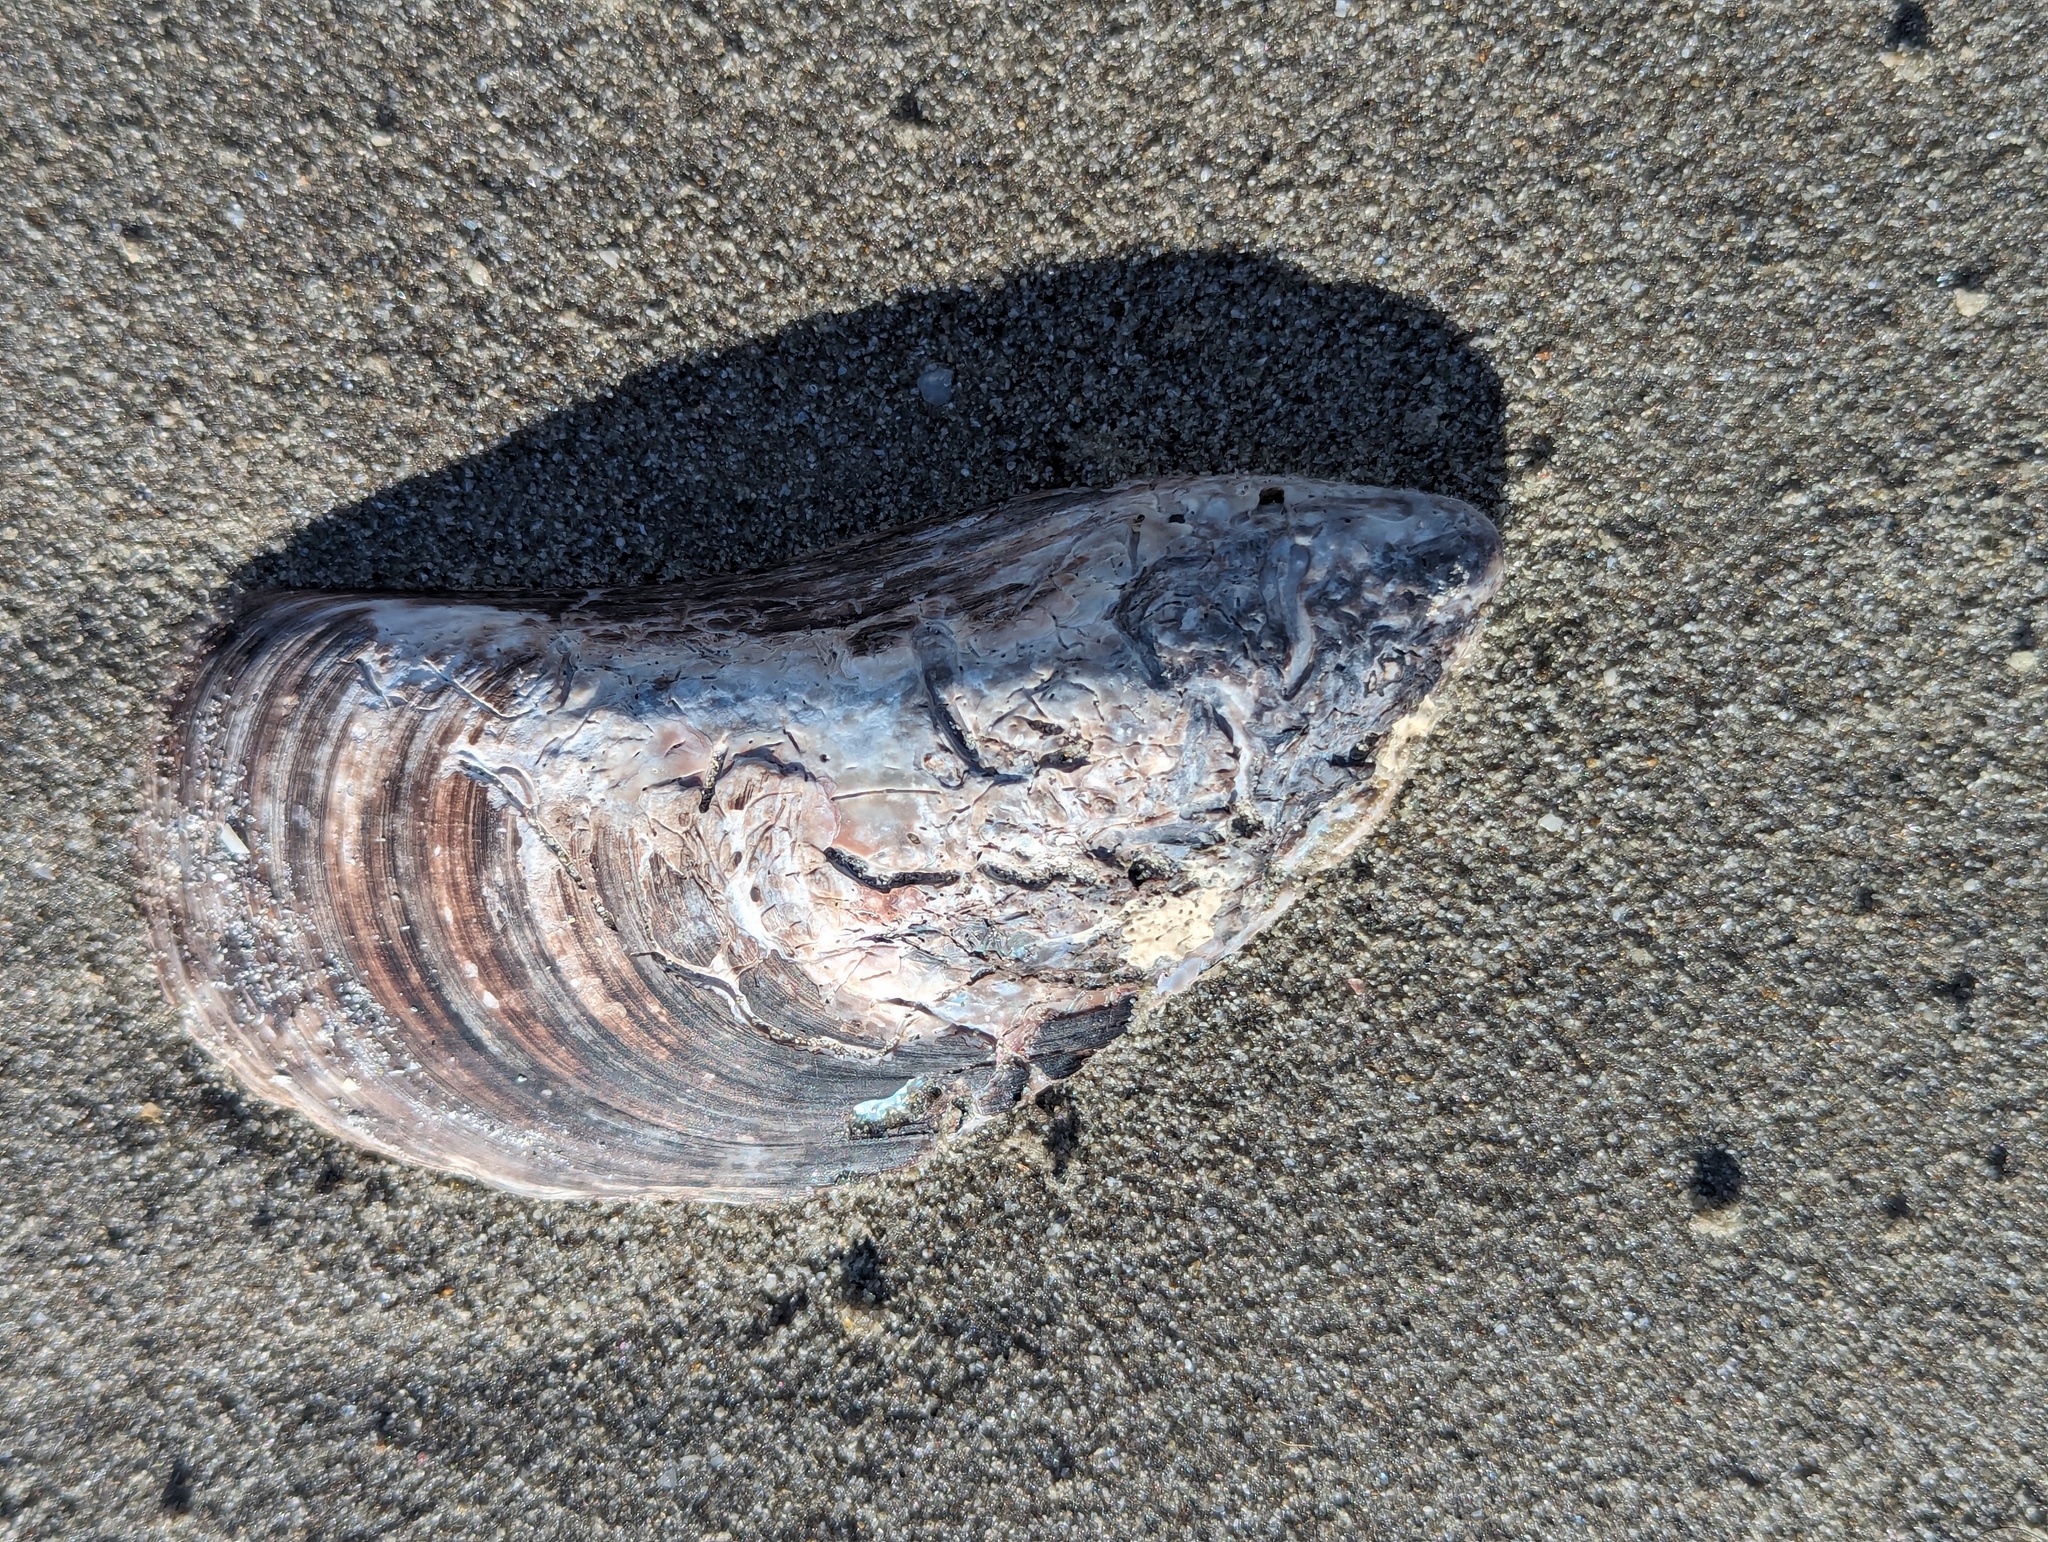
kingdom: Animalia
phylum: Mollusca
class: Bivalvia
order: Mytilida
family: Mytilidae
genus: Perna
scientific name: Perna canaliculus
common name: New zealand greenshelltm
